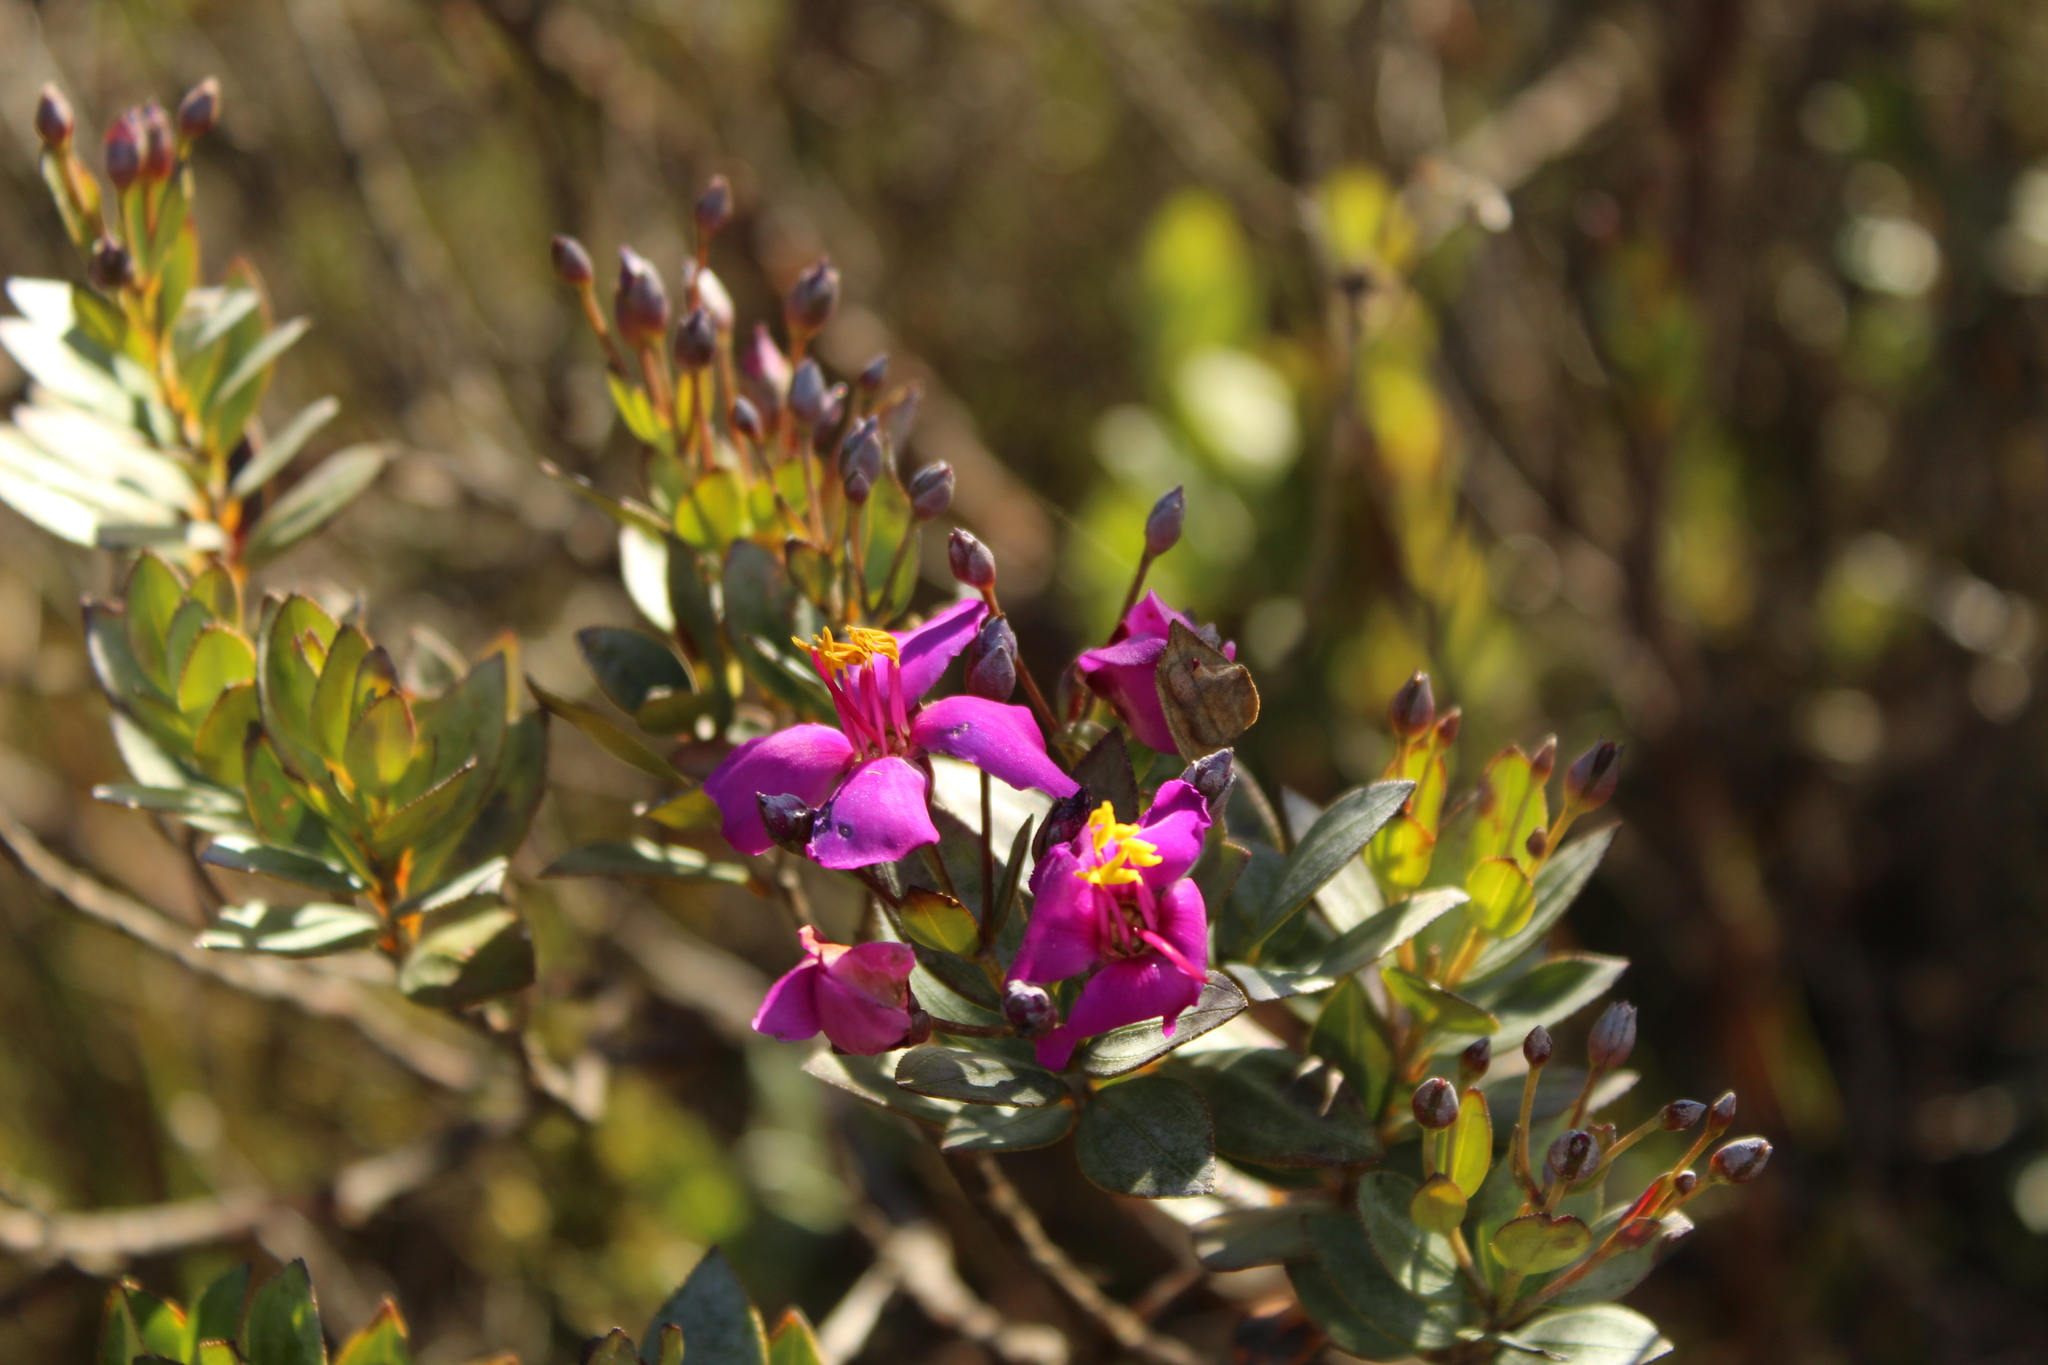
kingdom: Plantae
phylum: Tracheophyta
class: Magnoliopsida
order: Myrtales
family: Melastomataceae
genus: Bucquetia
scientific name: Bucquetia glutinosa
